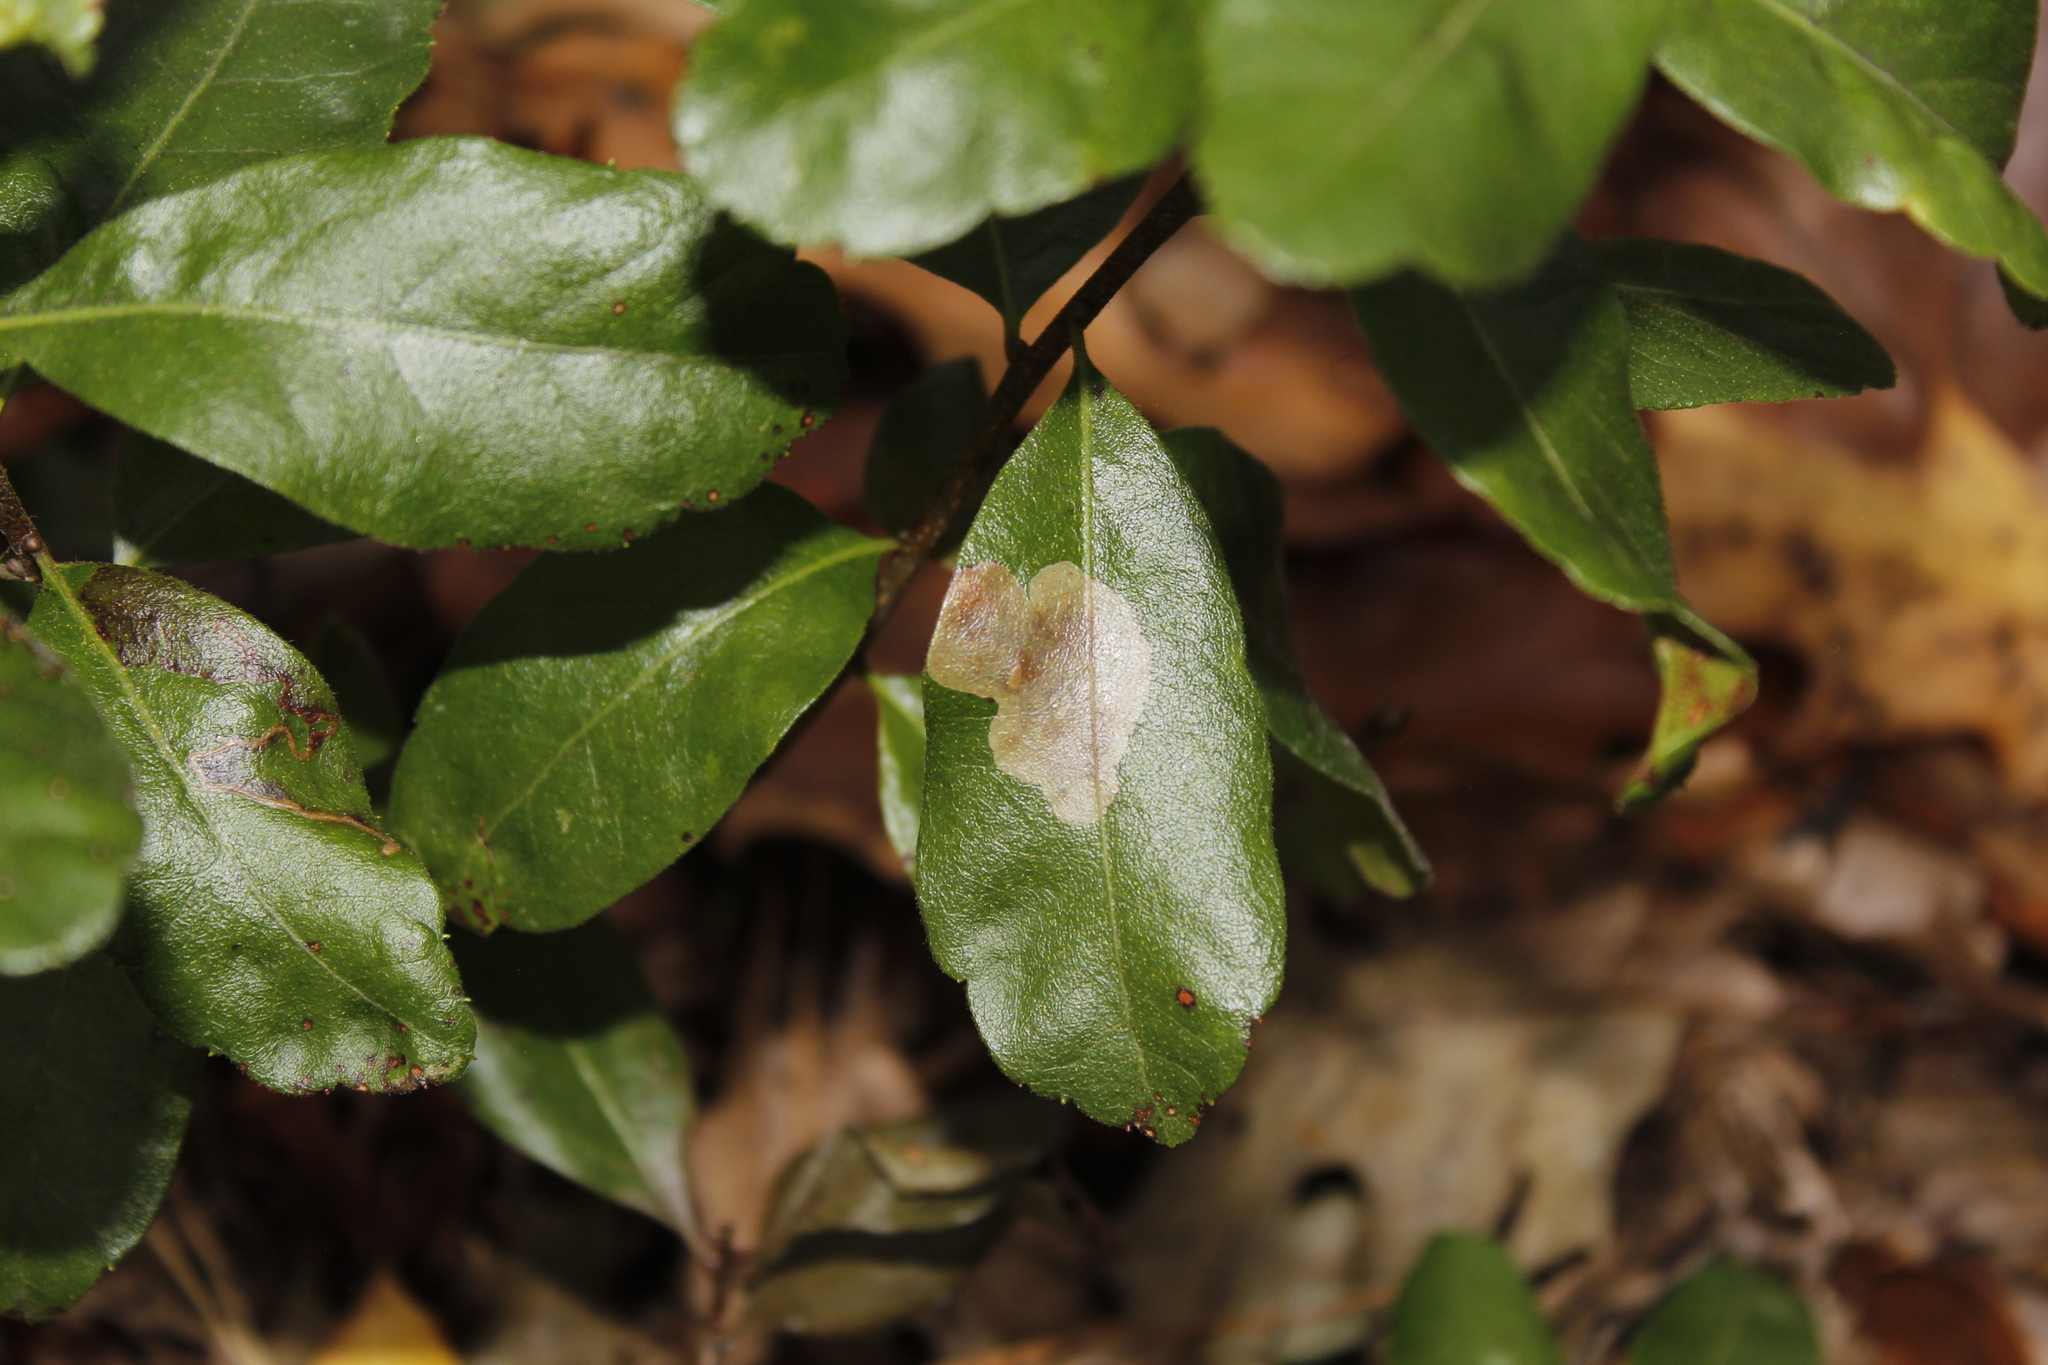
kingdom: Animalia
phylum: Arthropoda
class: Insecta
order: Lepidoptera
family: Gracillariidae
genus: Cameraria
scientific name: Cameraria picturatella
